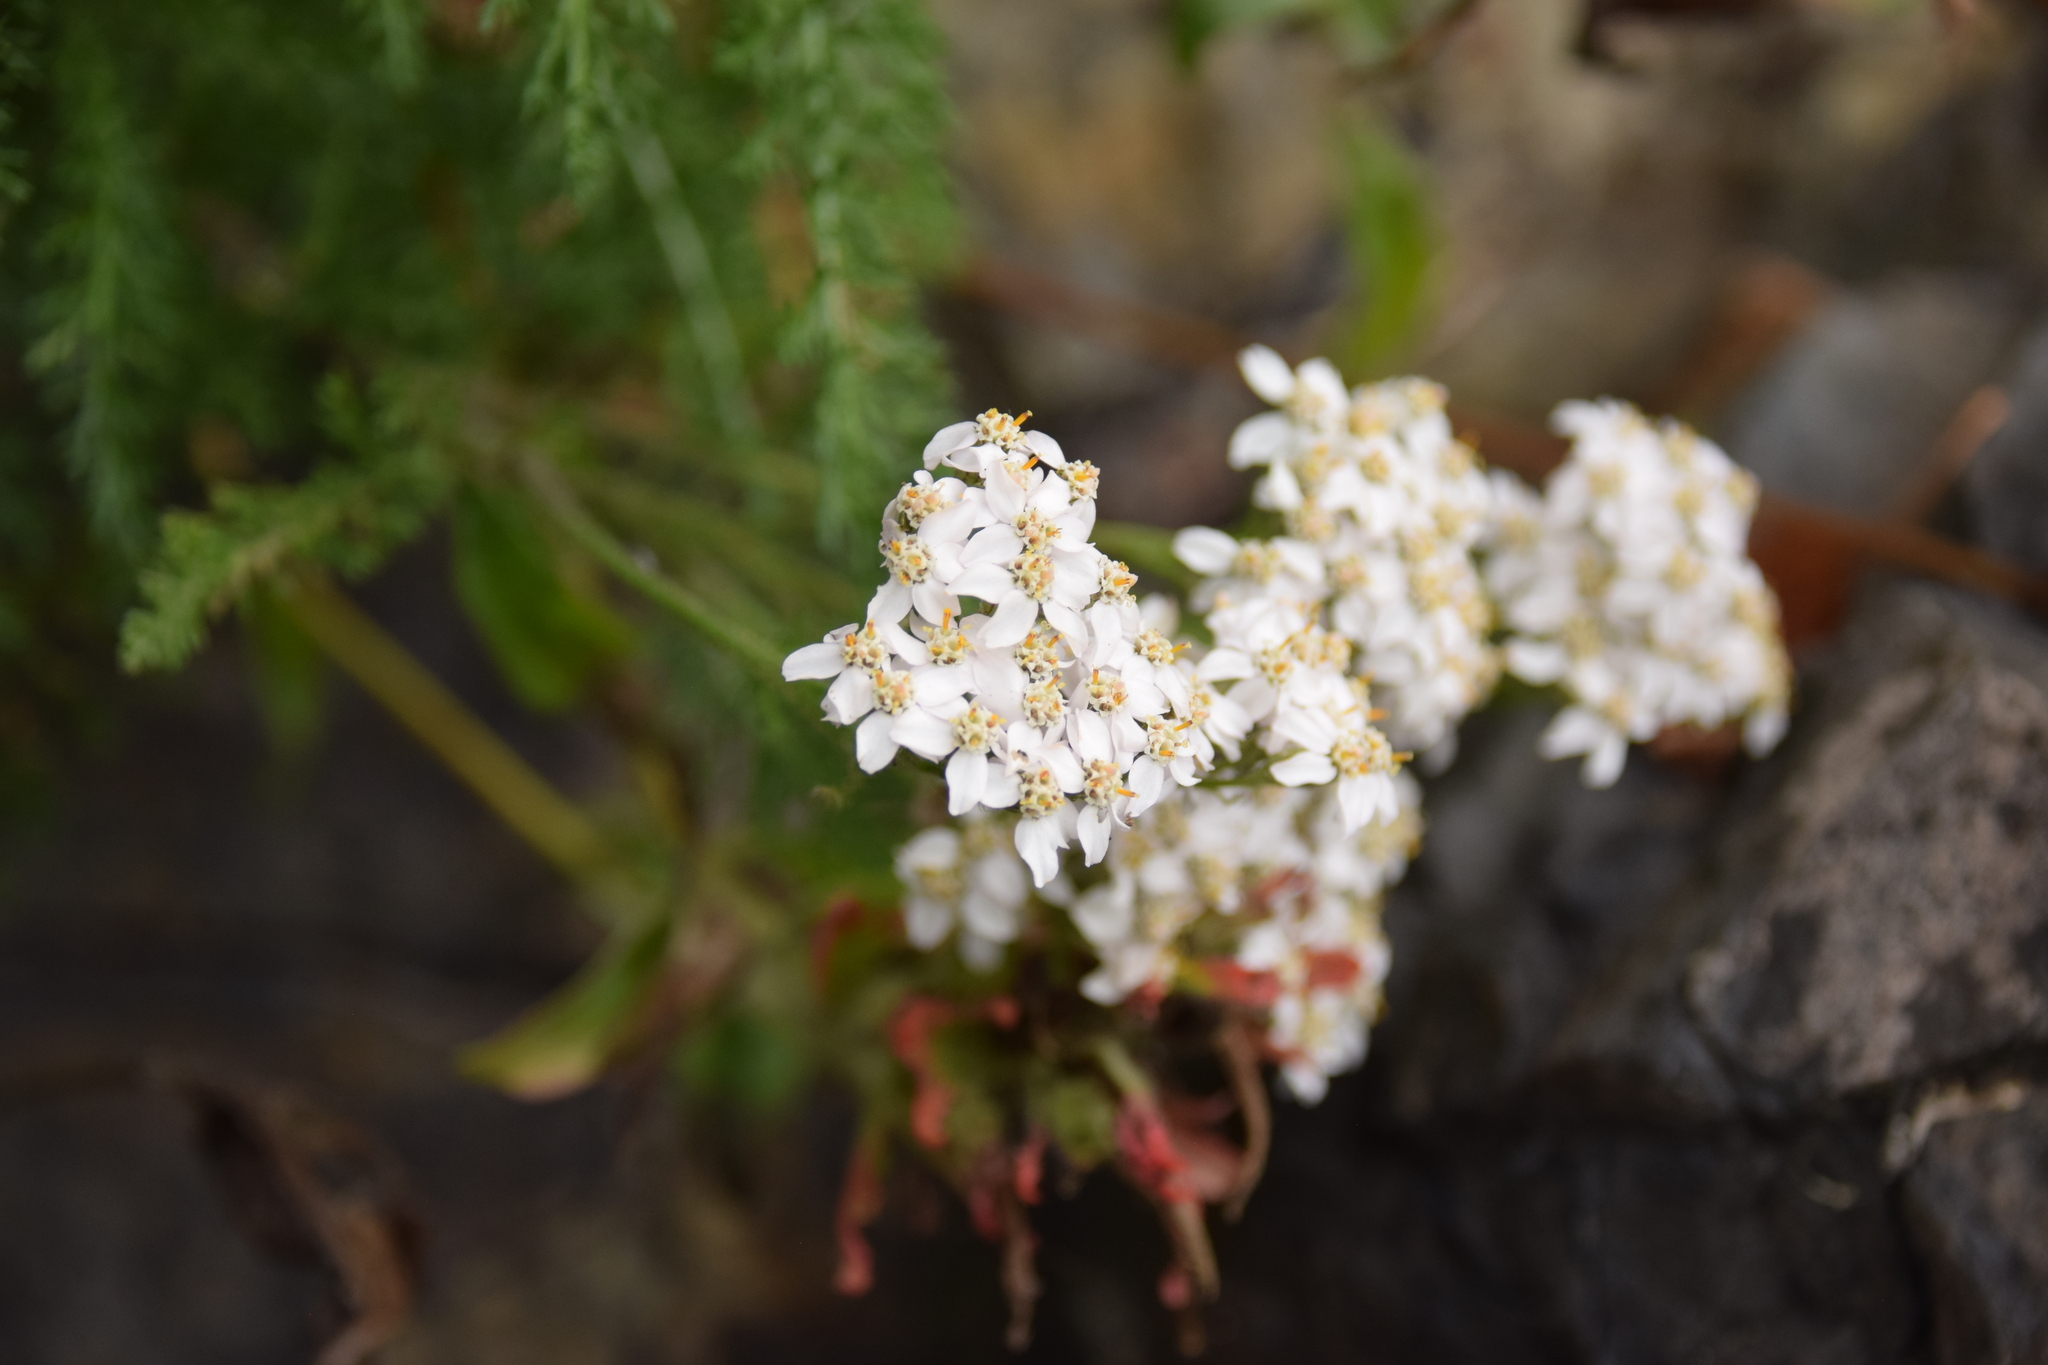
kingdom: Plantae
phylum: Tracheophyta
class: Magnoliopsida
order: Asterales
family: Asteraceae
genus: Achillea
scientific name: Achillea millefolium
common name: Yarrow
